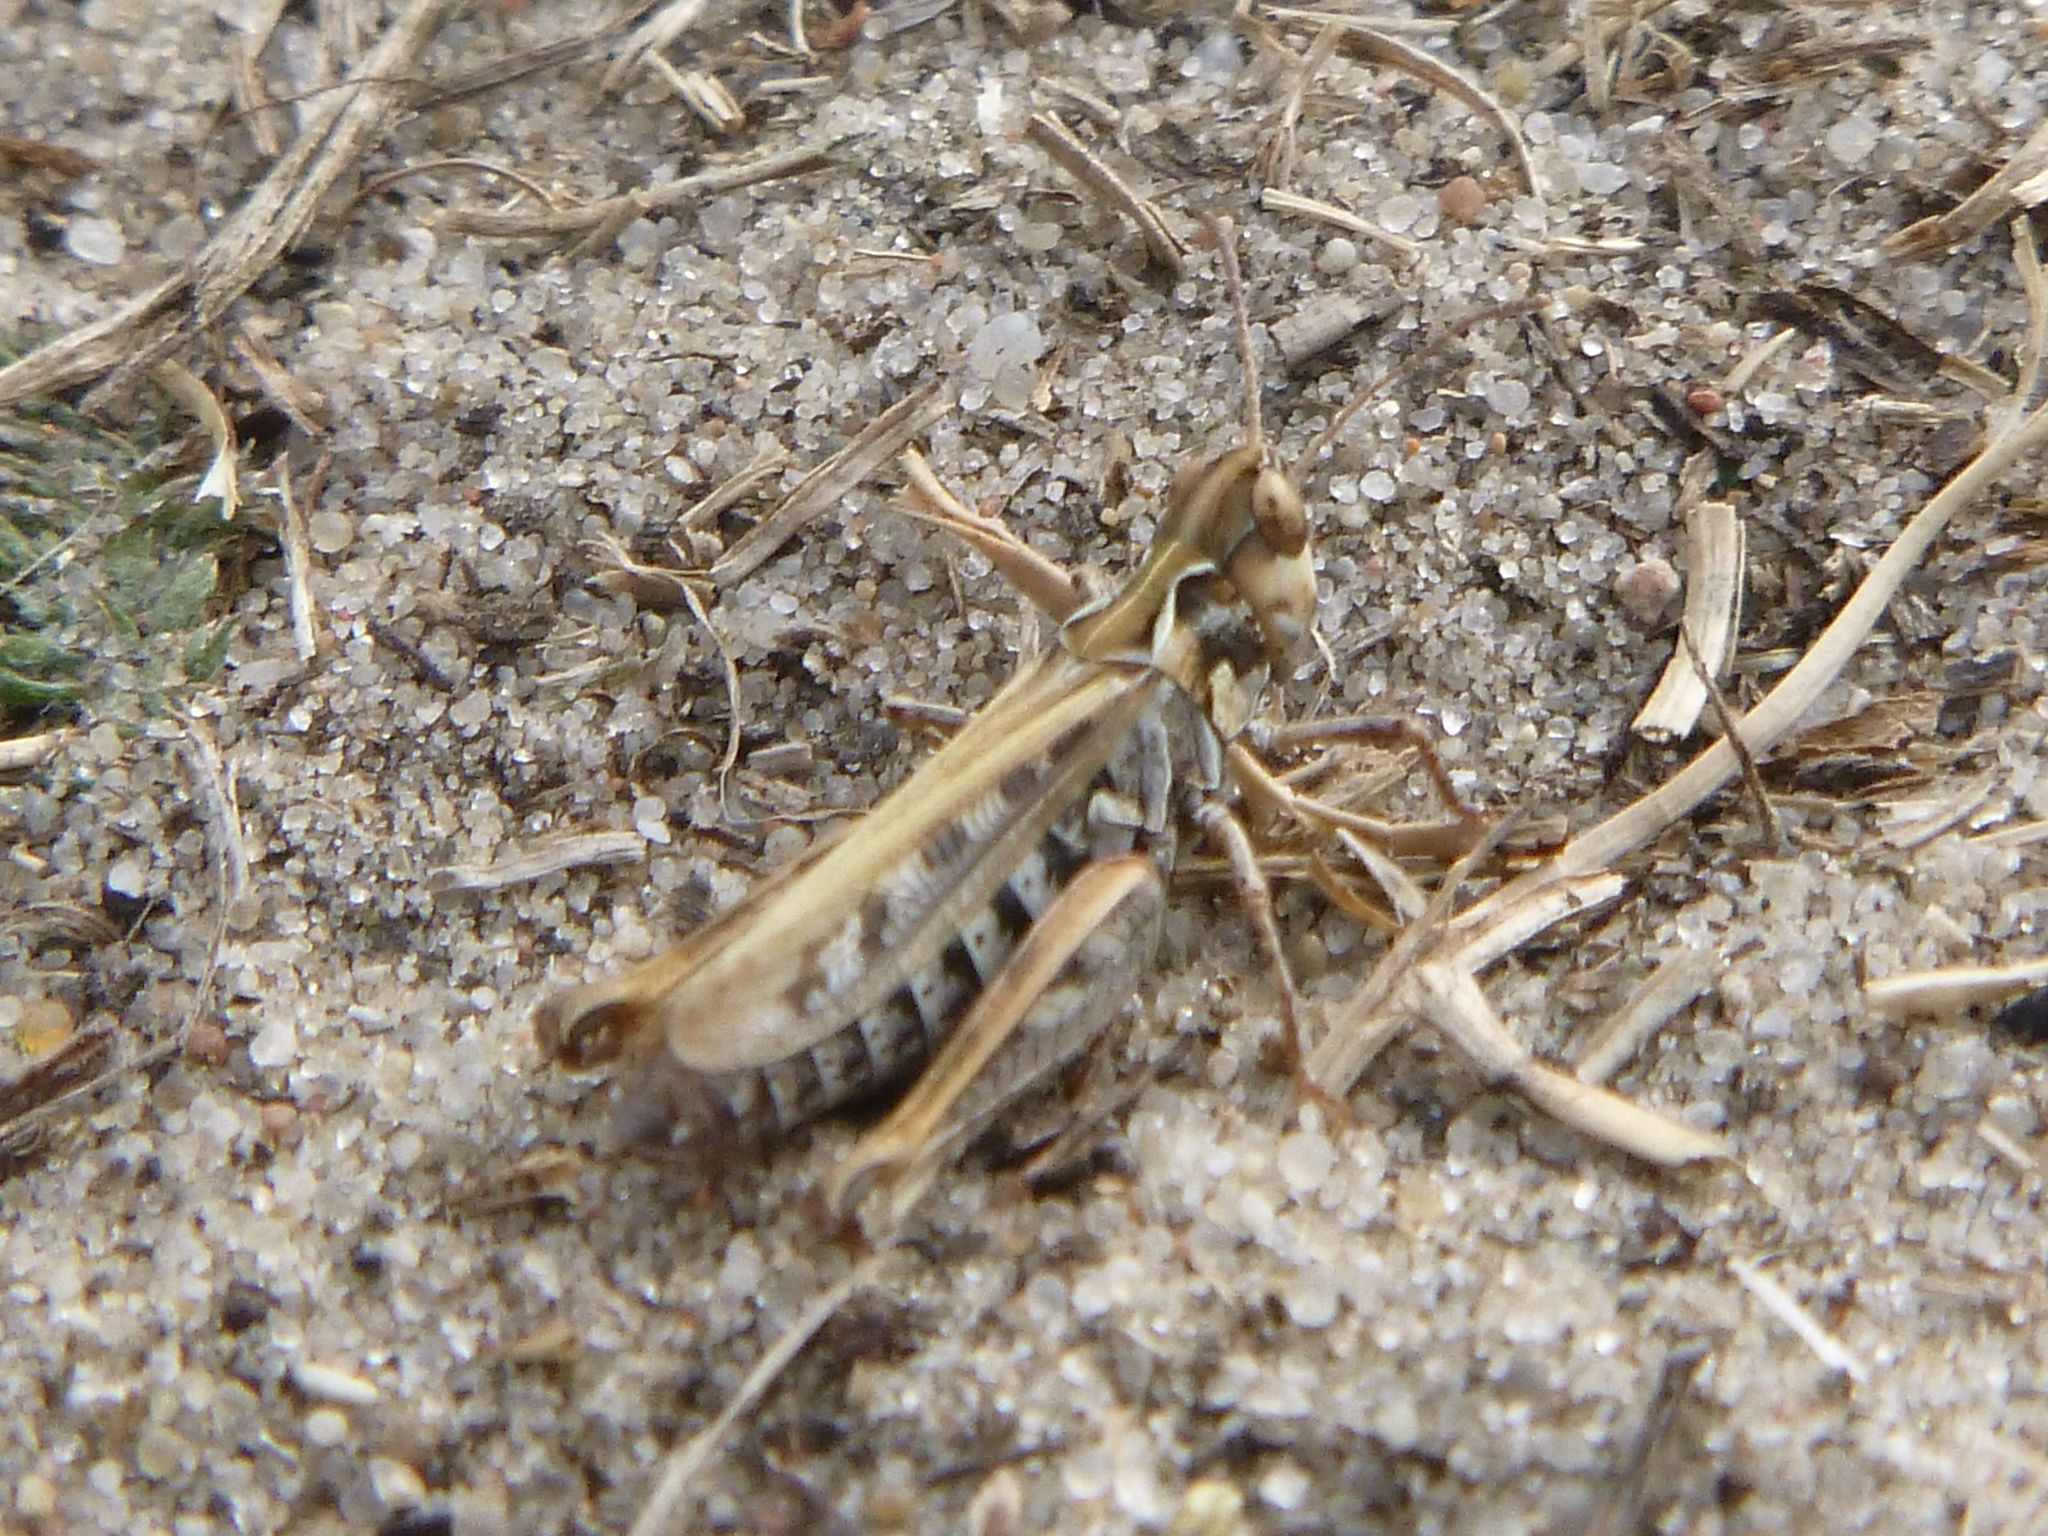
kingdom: Animalia
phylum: Arthropoda
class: Insecta
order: Orthoptera
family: Acrididae
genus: Myrmeleotettix
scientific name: Myrmeleotettix maculatus
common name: Mottled grasshopper
